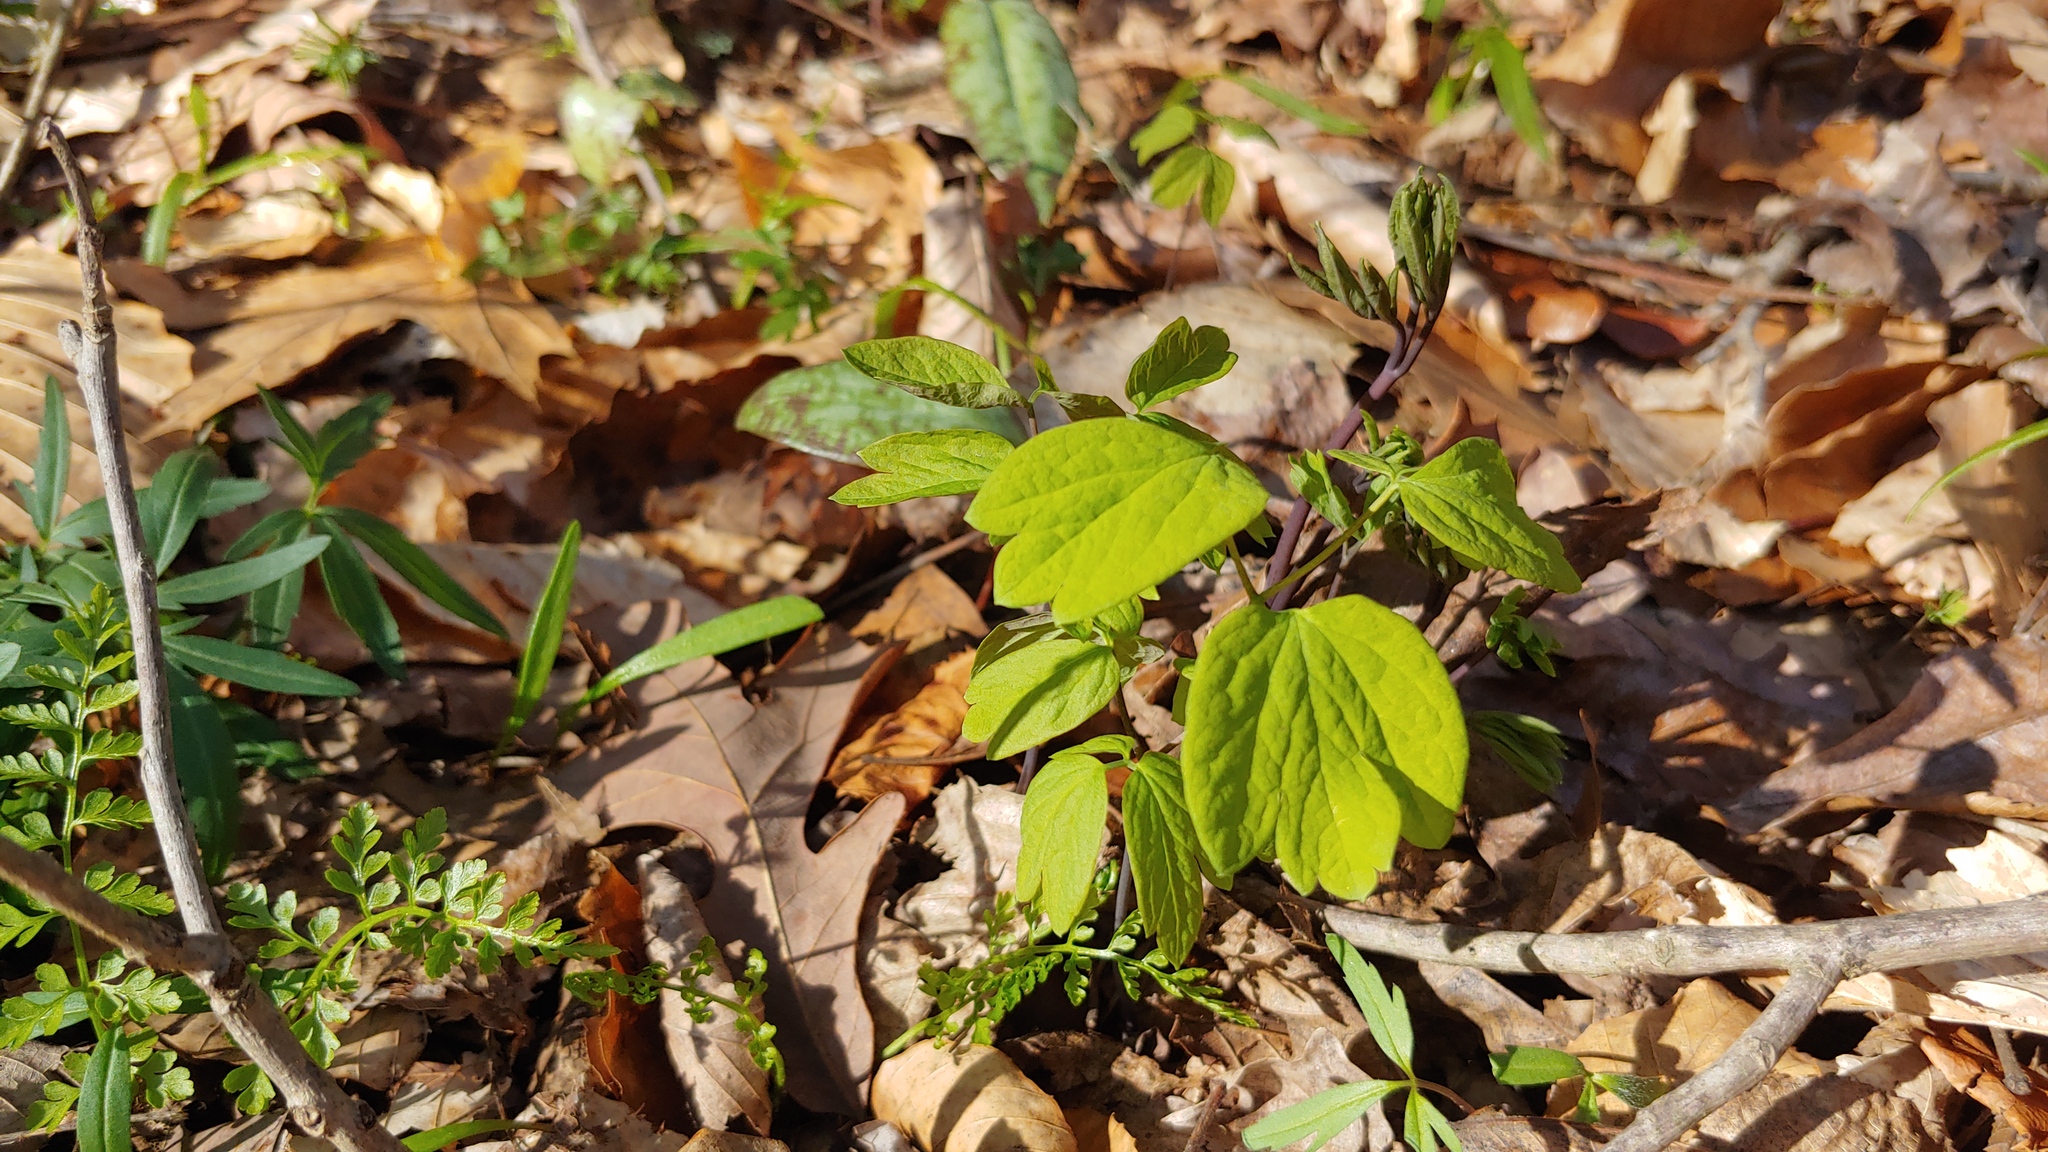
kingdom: Plantae
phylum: Tracheophyta
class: Magnoliopsida
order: Ranunculales
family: Berberidaceae
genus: Caulophyllum
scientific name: Caulophyllum thalictroides
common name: Blue cohosh
